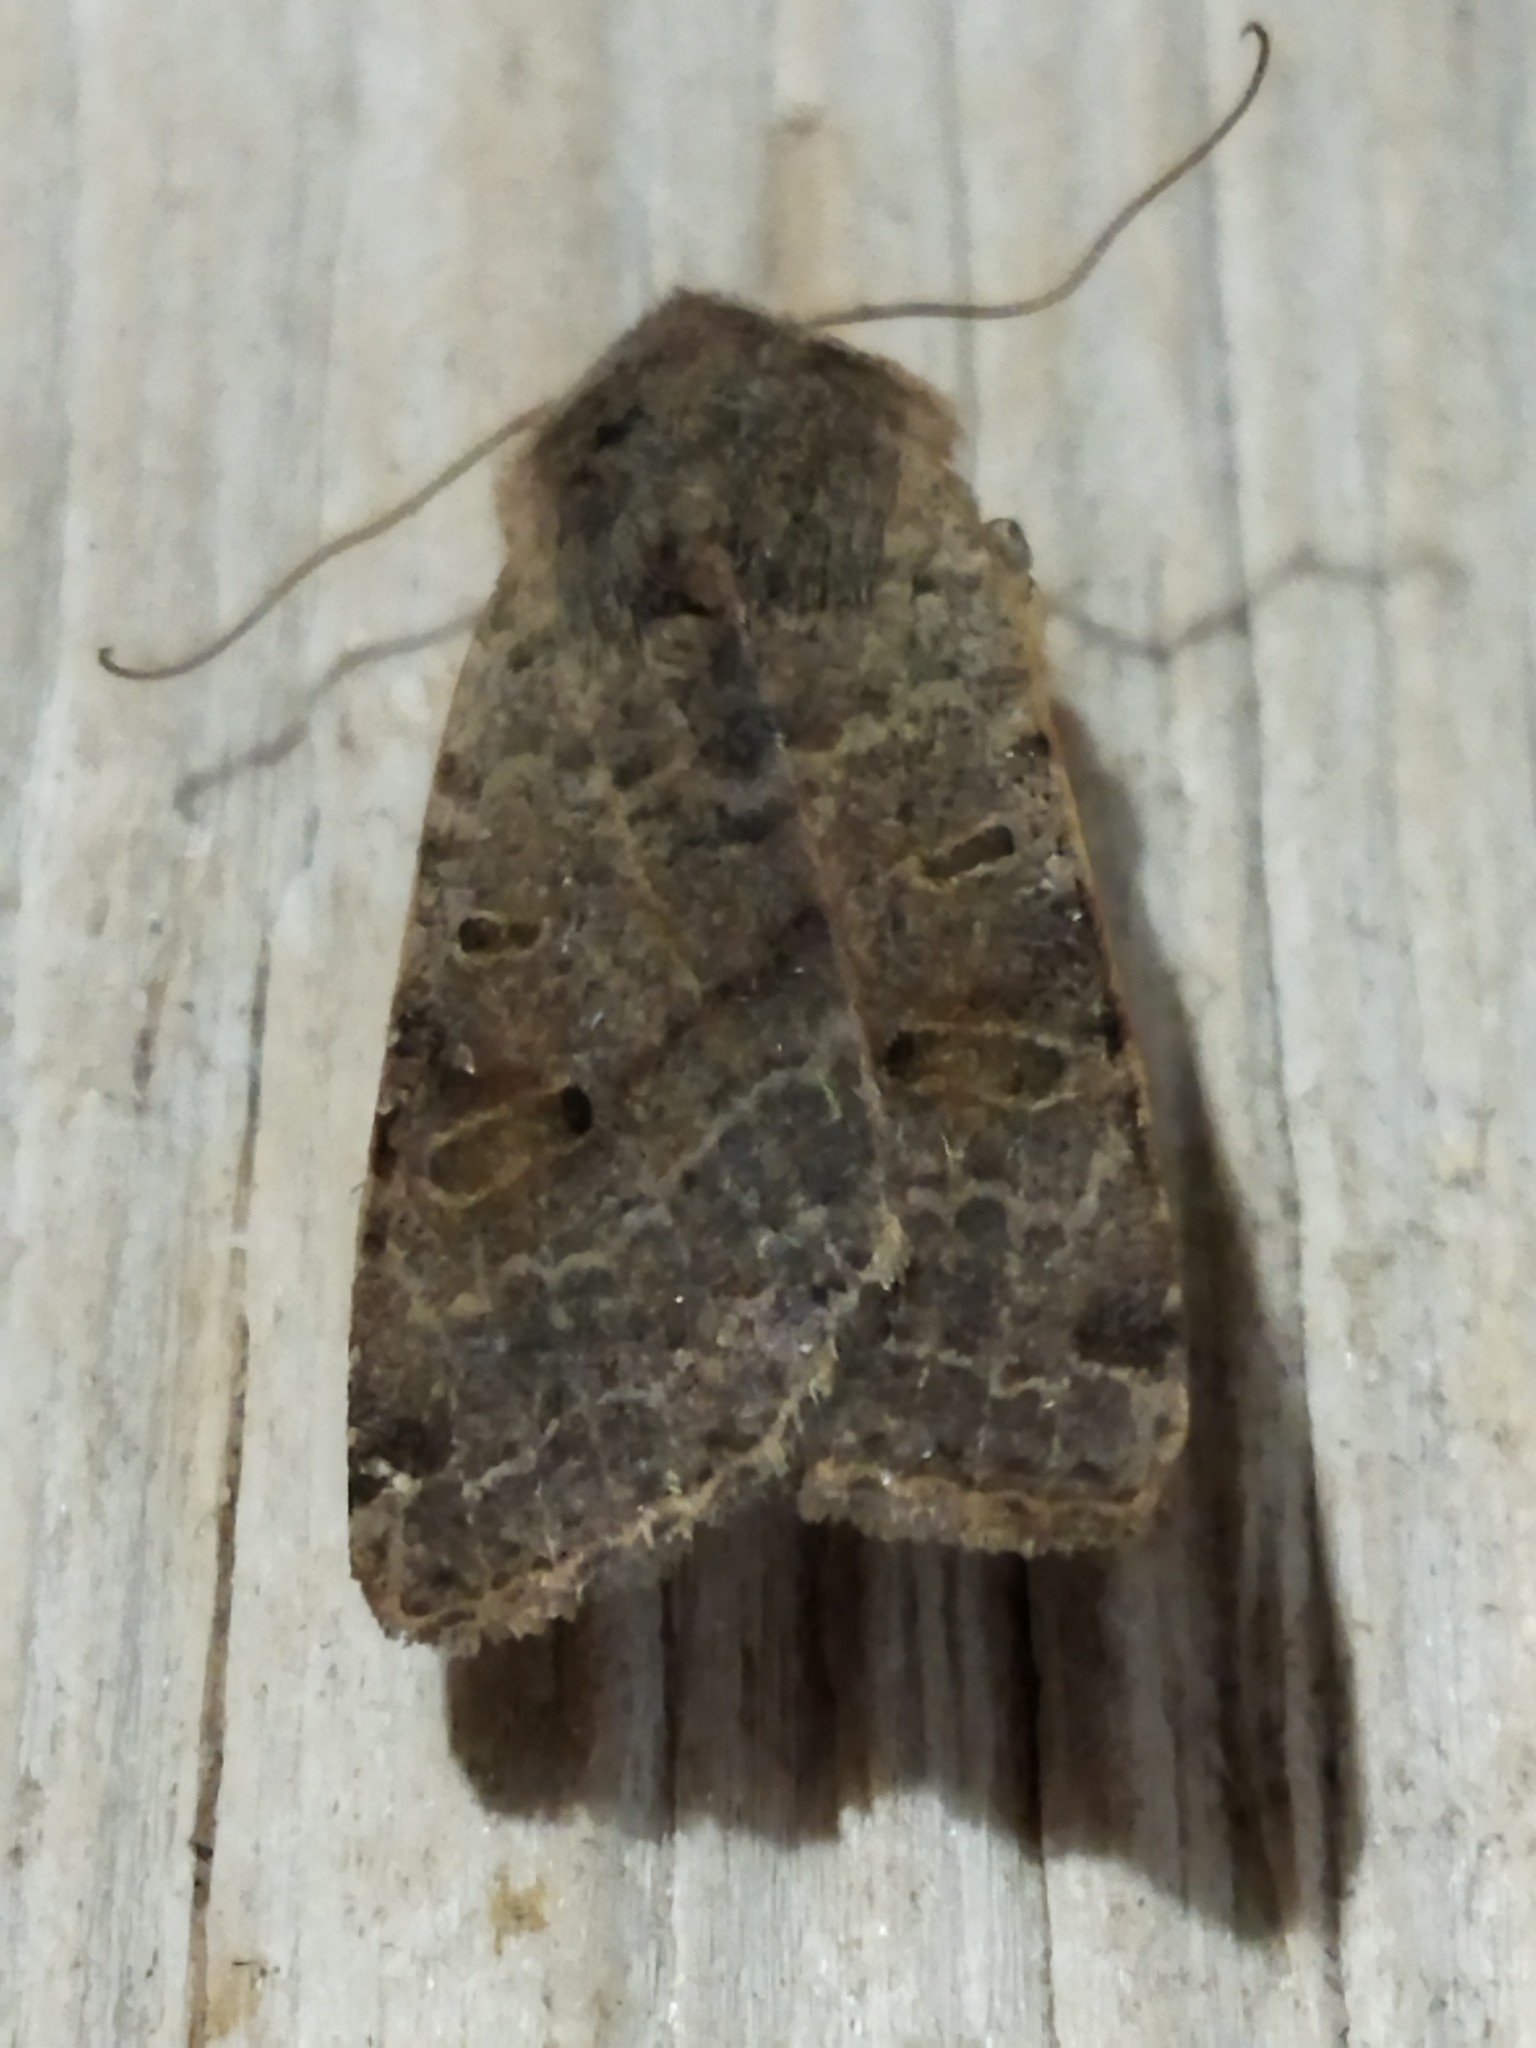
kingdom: Animalia
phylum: Arthropoda
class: Insecta
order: Lepidoptera
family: Noctuidae
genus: Agrochola
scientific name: Agrochola lychnidis
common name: Beaded chestnut
